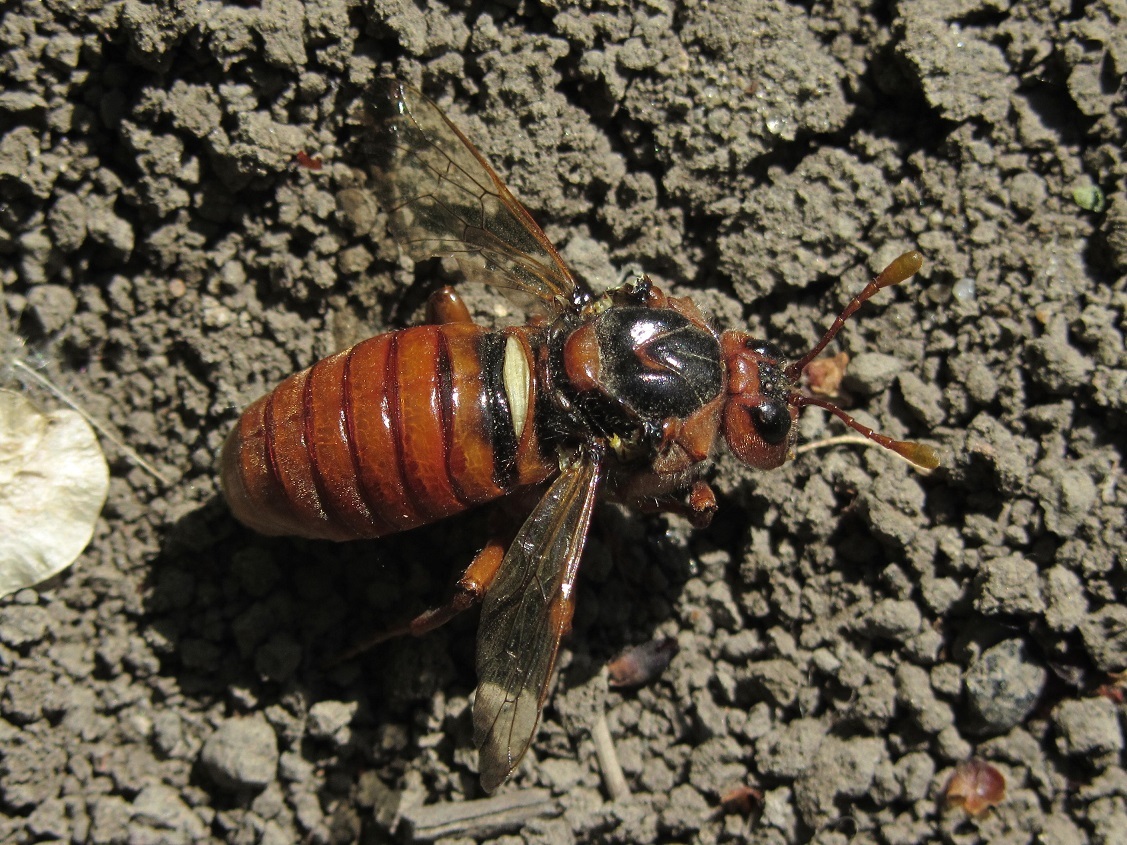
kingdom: Animalia
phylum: Arthropoda
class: Insecta
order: Hymenoptera
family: Cimbicidae
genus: Cimbex
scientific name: Cimbex femoratus
